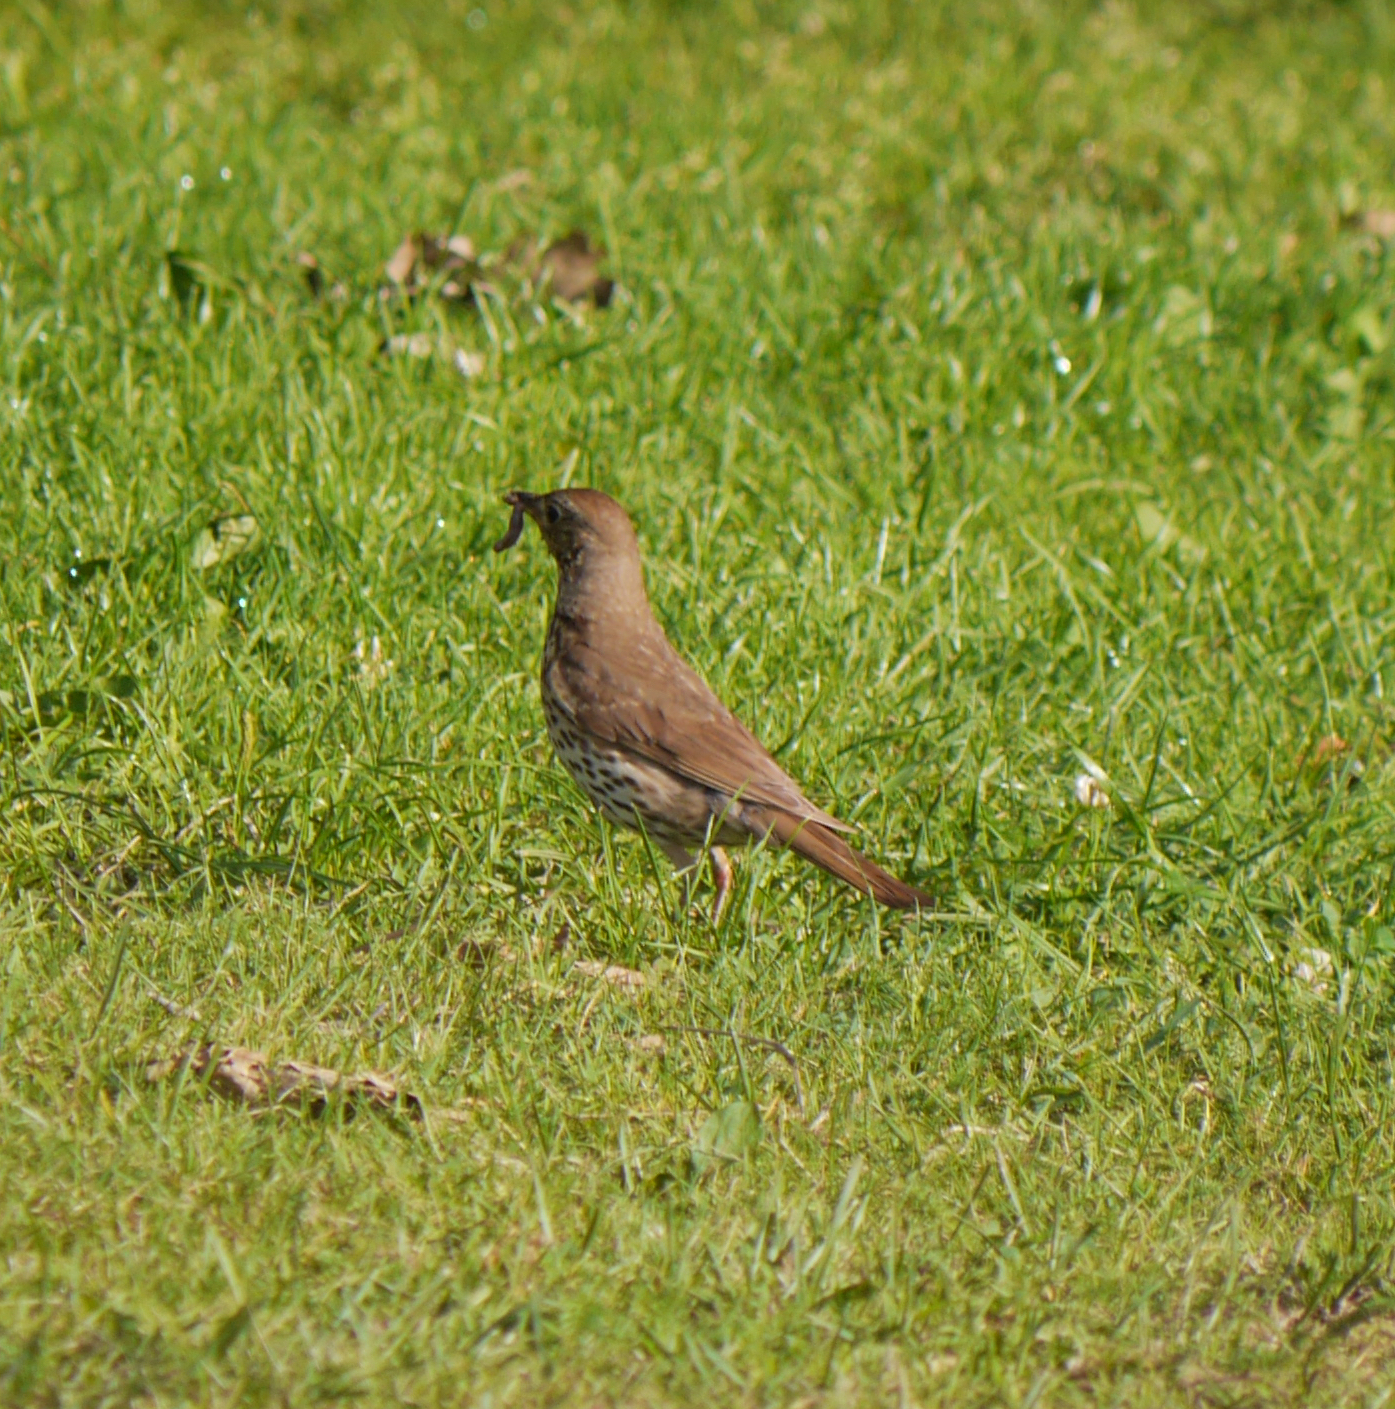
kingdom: Animalia
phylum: Chordata
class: Aves
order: Passeriformes
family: Turdidae
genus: Turdus
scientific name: Turdus philomelos
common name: Song thrush
